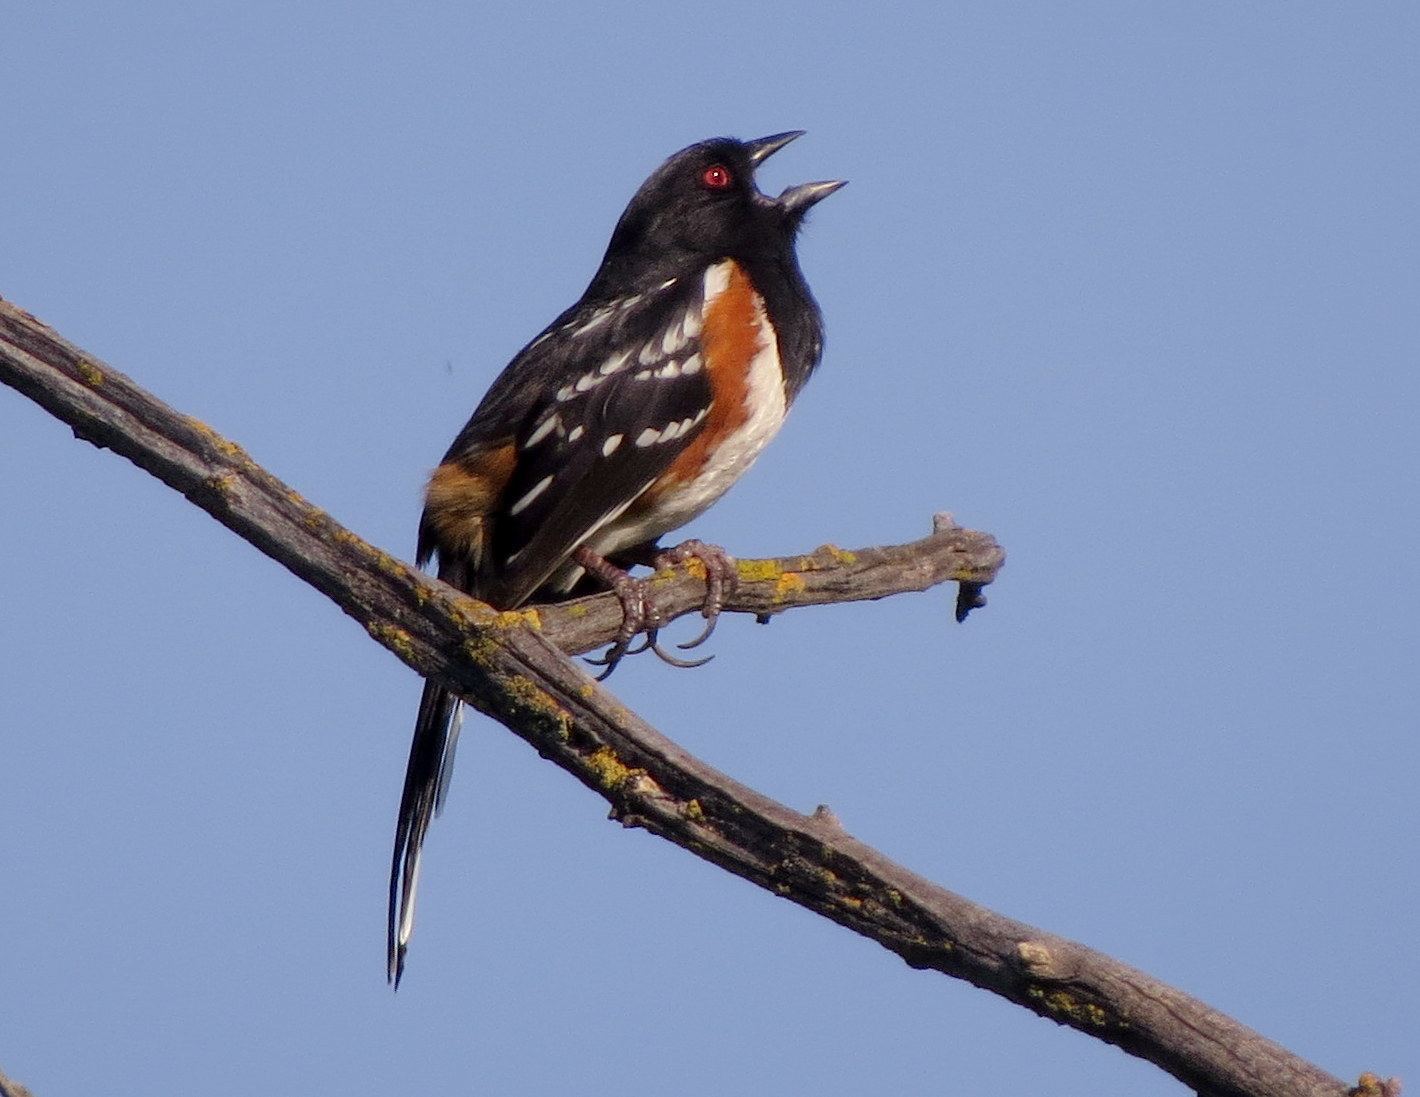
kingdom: Animalia
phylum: Chordata
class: Aves
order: Passeriformes
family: Passerellidae
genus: Pipilo
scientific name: Pipilo maculatus
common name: Spotted towhee
